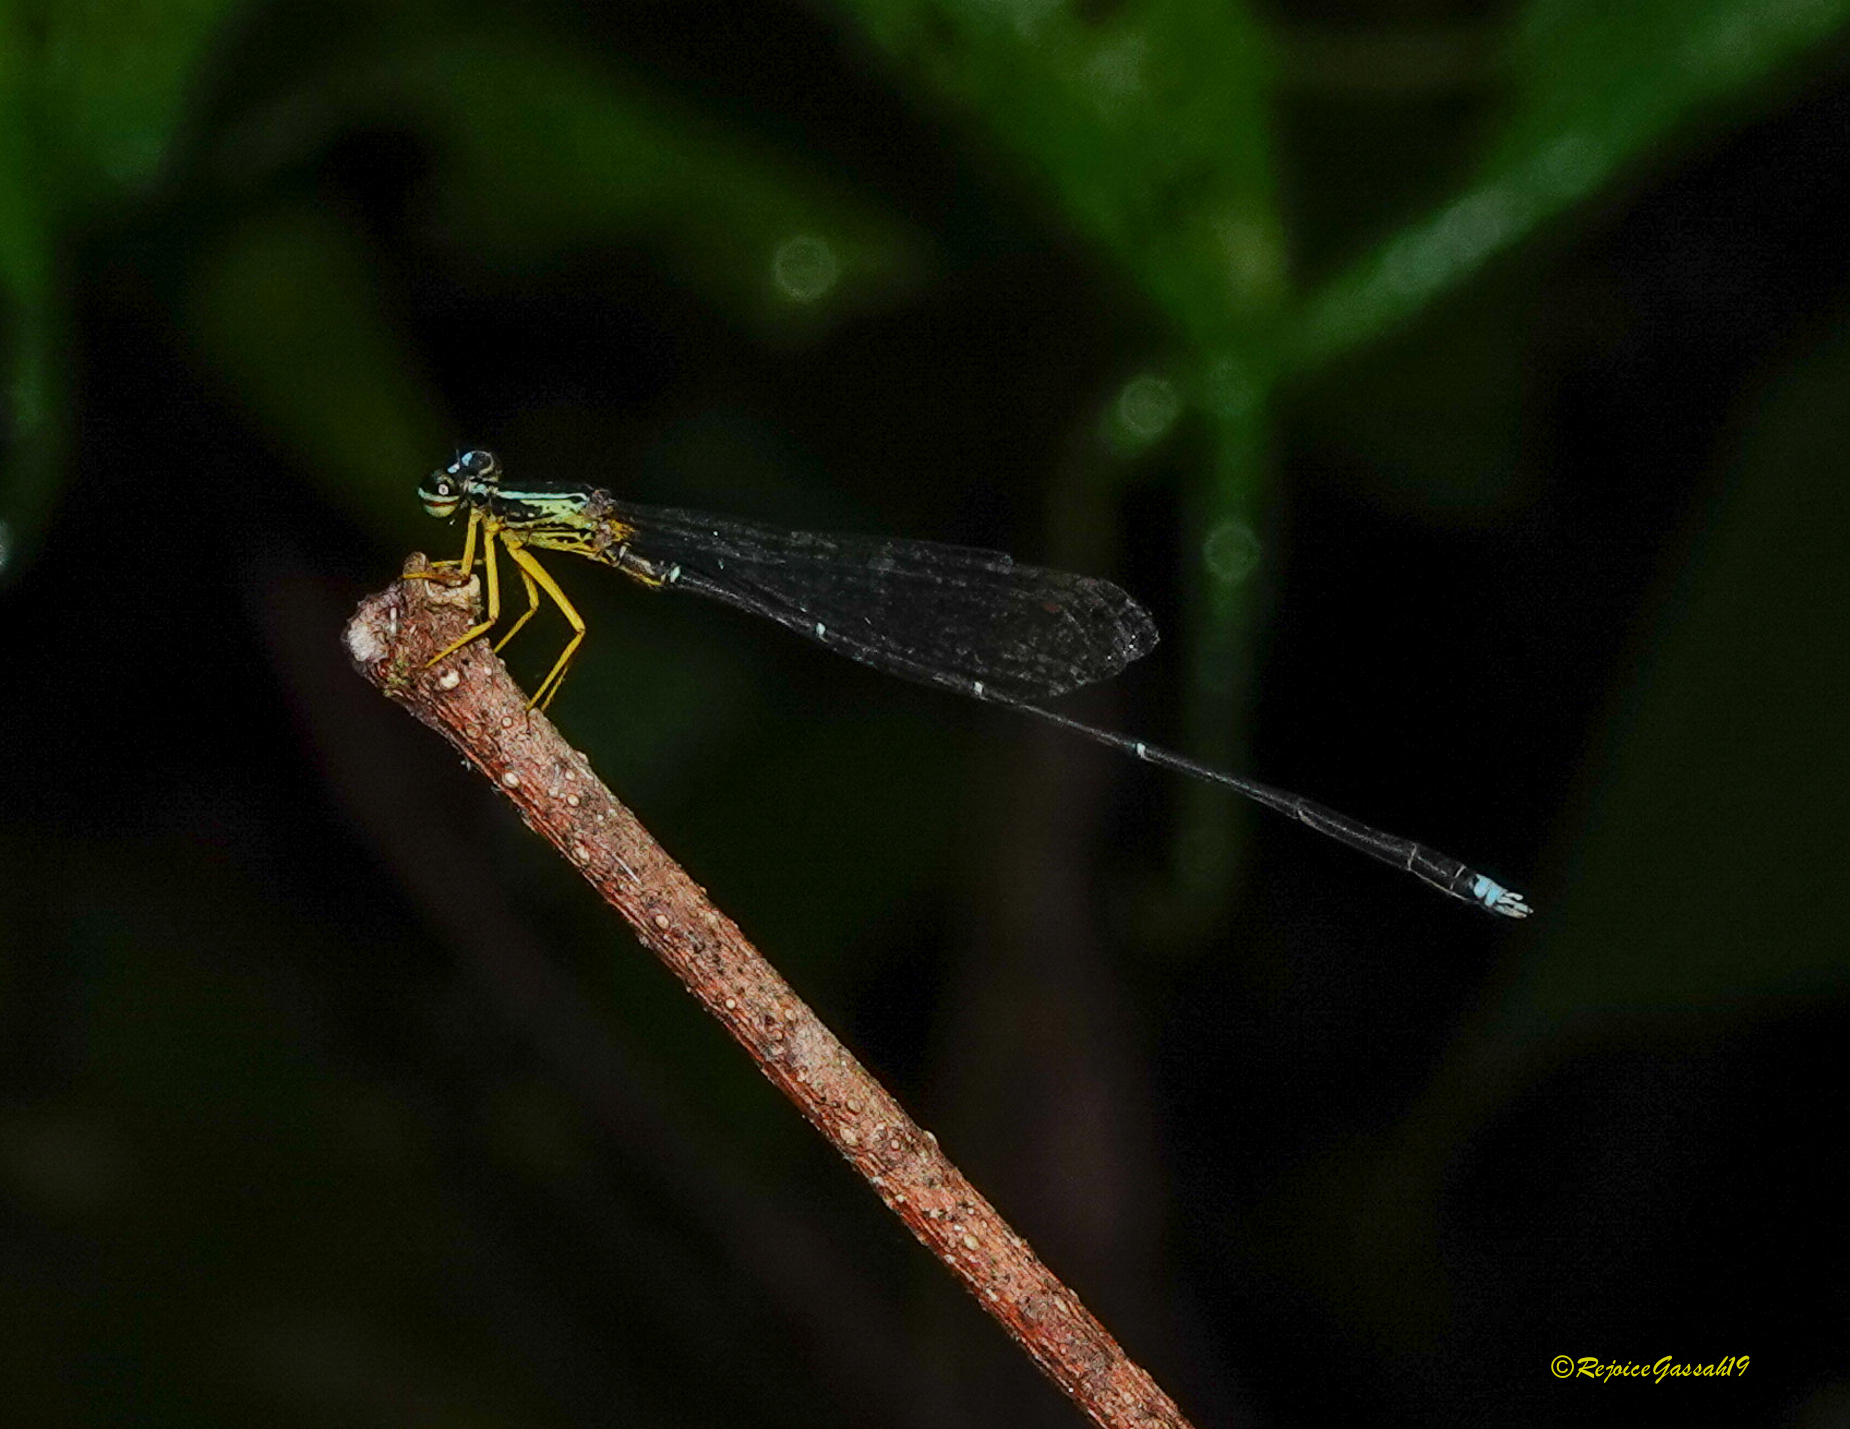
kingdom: Animalia
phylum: Arthropoda
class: Insecta
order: Odonata
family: Platycnemididae
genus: Copera
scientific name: Copera vittata
